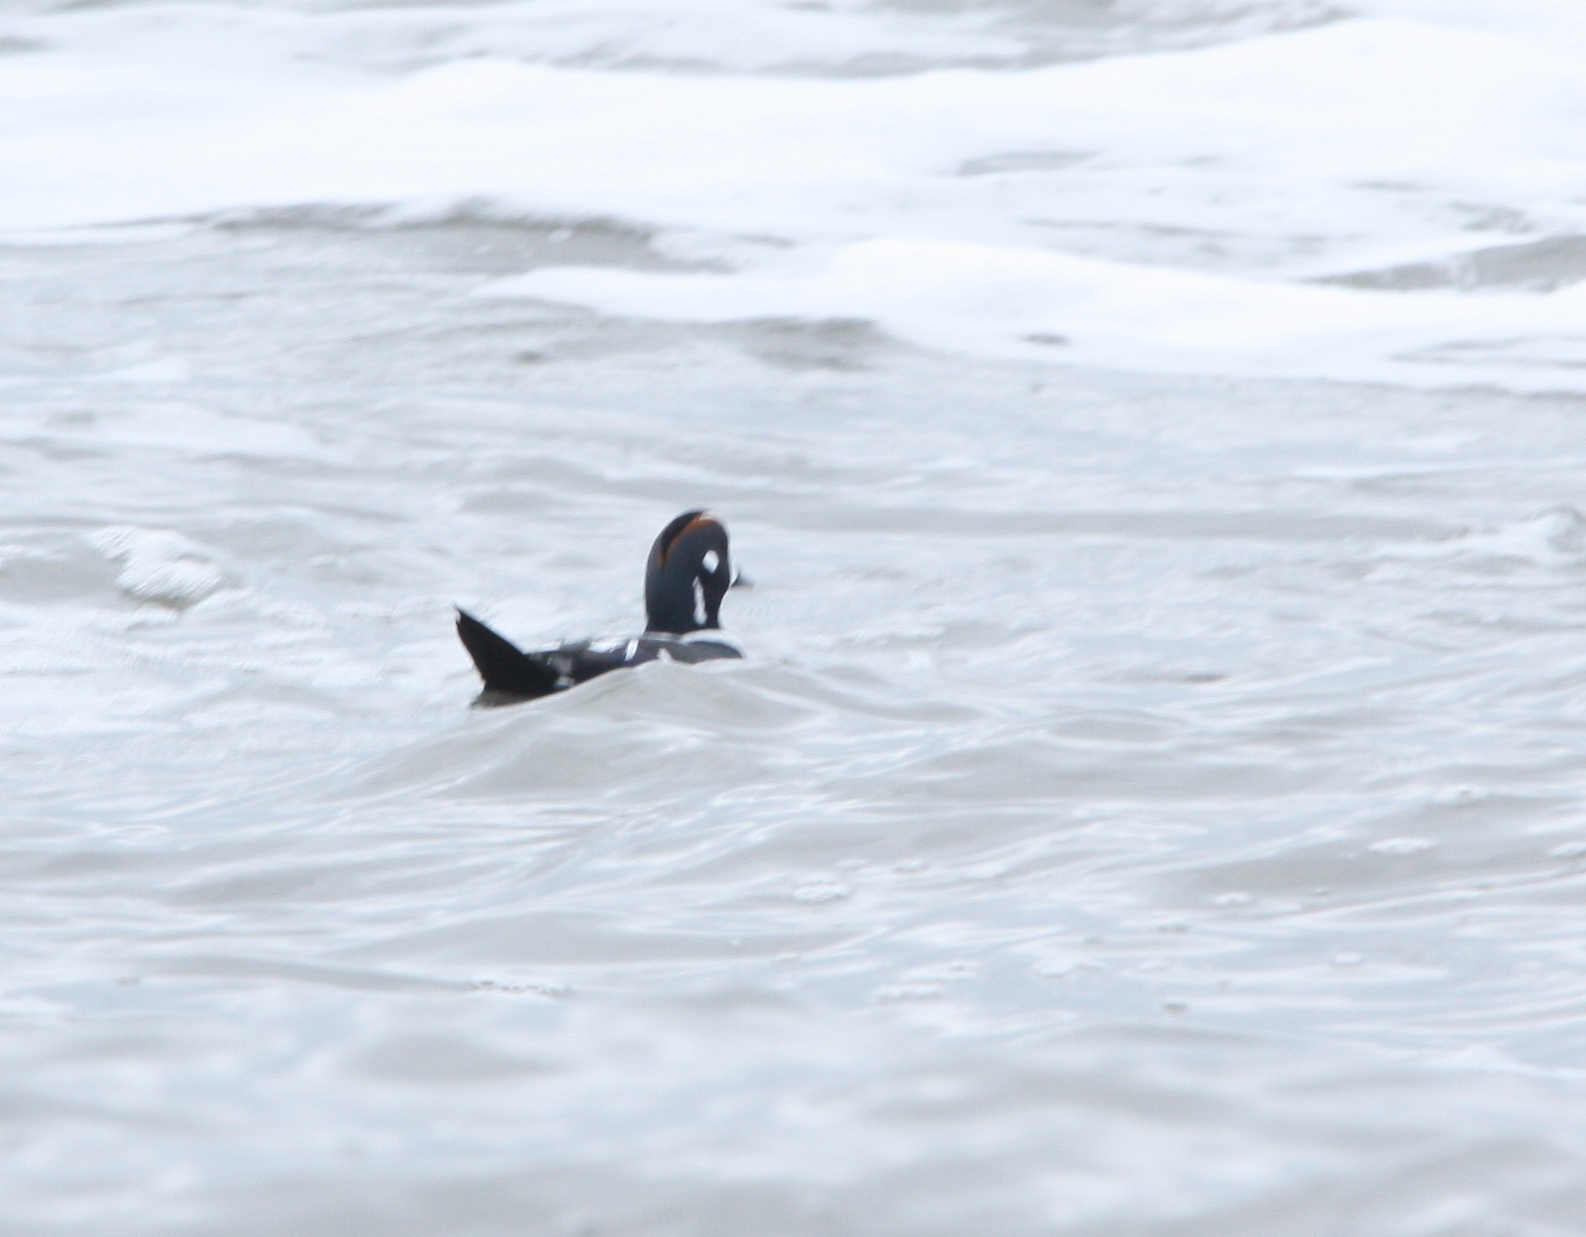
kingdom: Animalia
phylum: Chordata
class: Aves
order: Anseriformes
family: Anatidae
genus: Histrionicus
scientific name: Histrionicus histrionicus
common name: Harlequin duck
